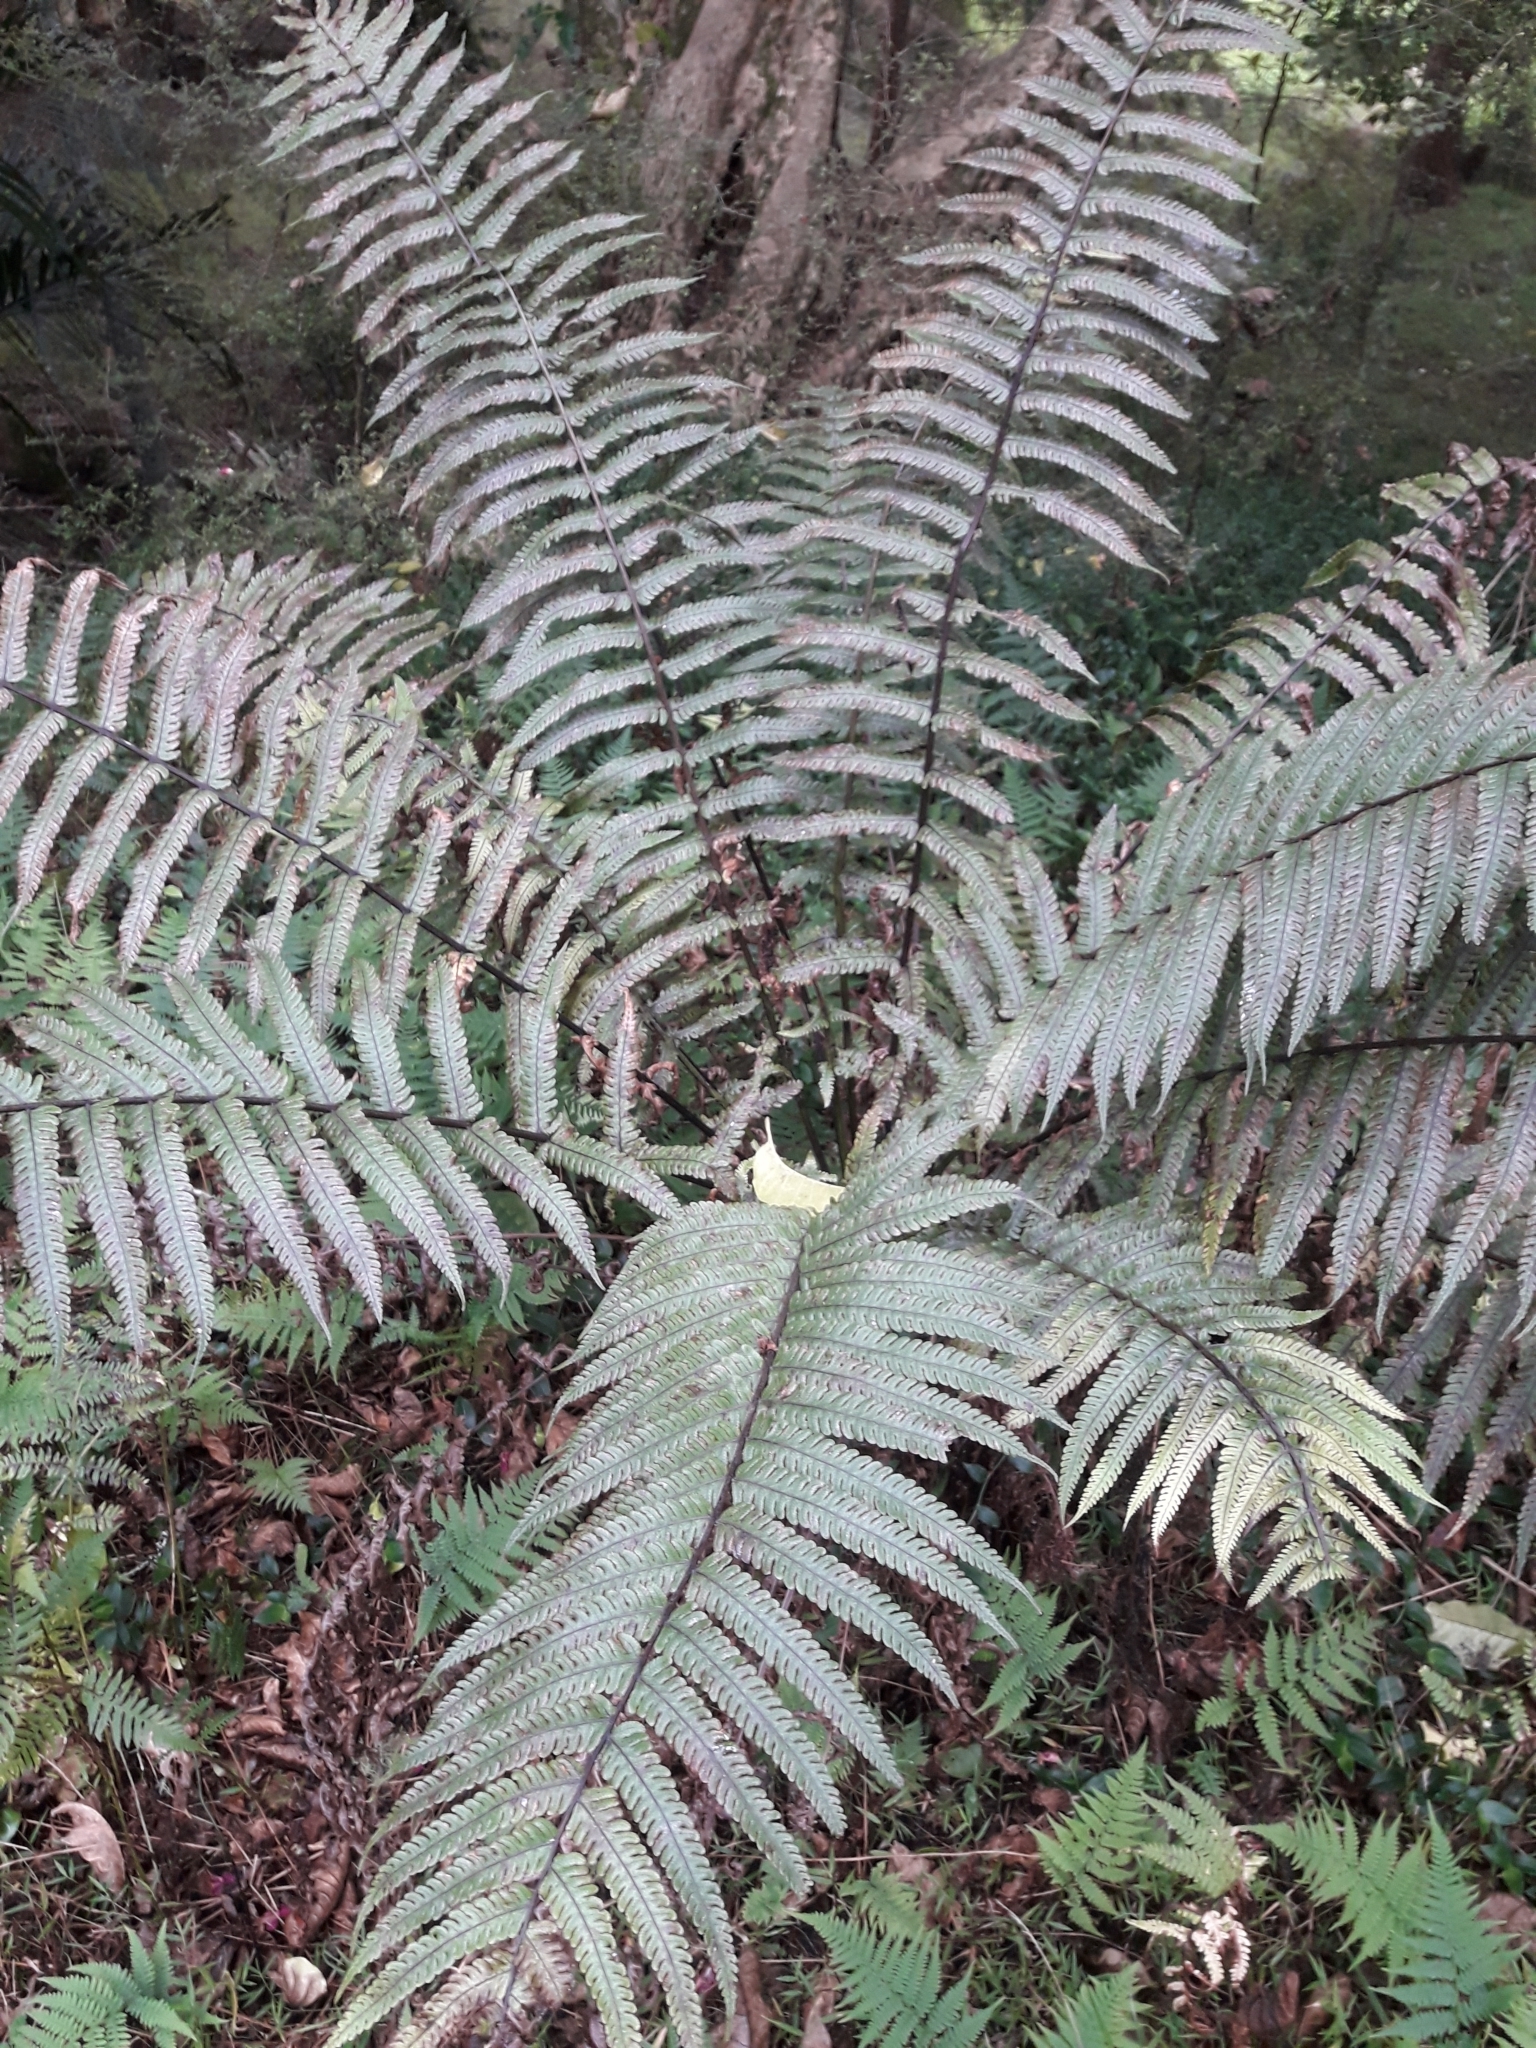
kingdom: Plantae
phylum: Tracheophyta
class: Polypodiopsida
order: Polypodiales
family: Thelypteridaceae
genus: Pakau
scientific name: Pakau pennigera
